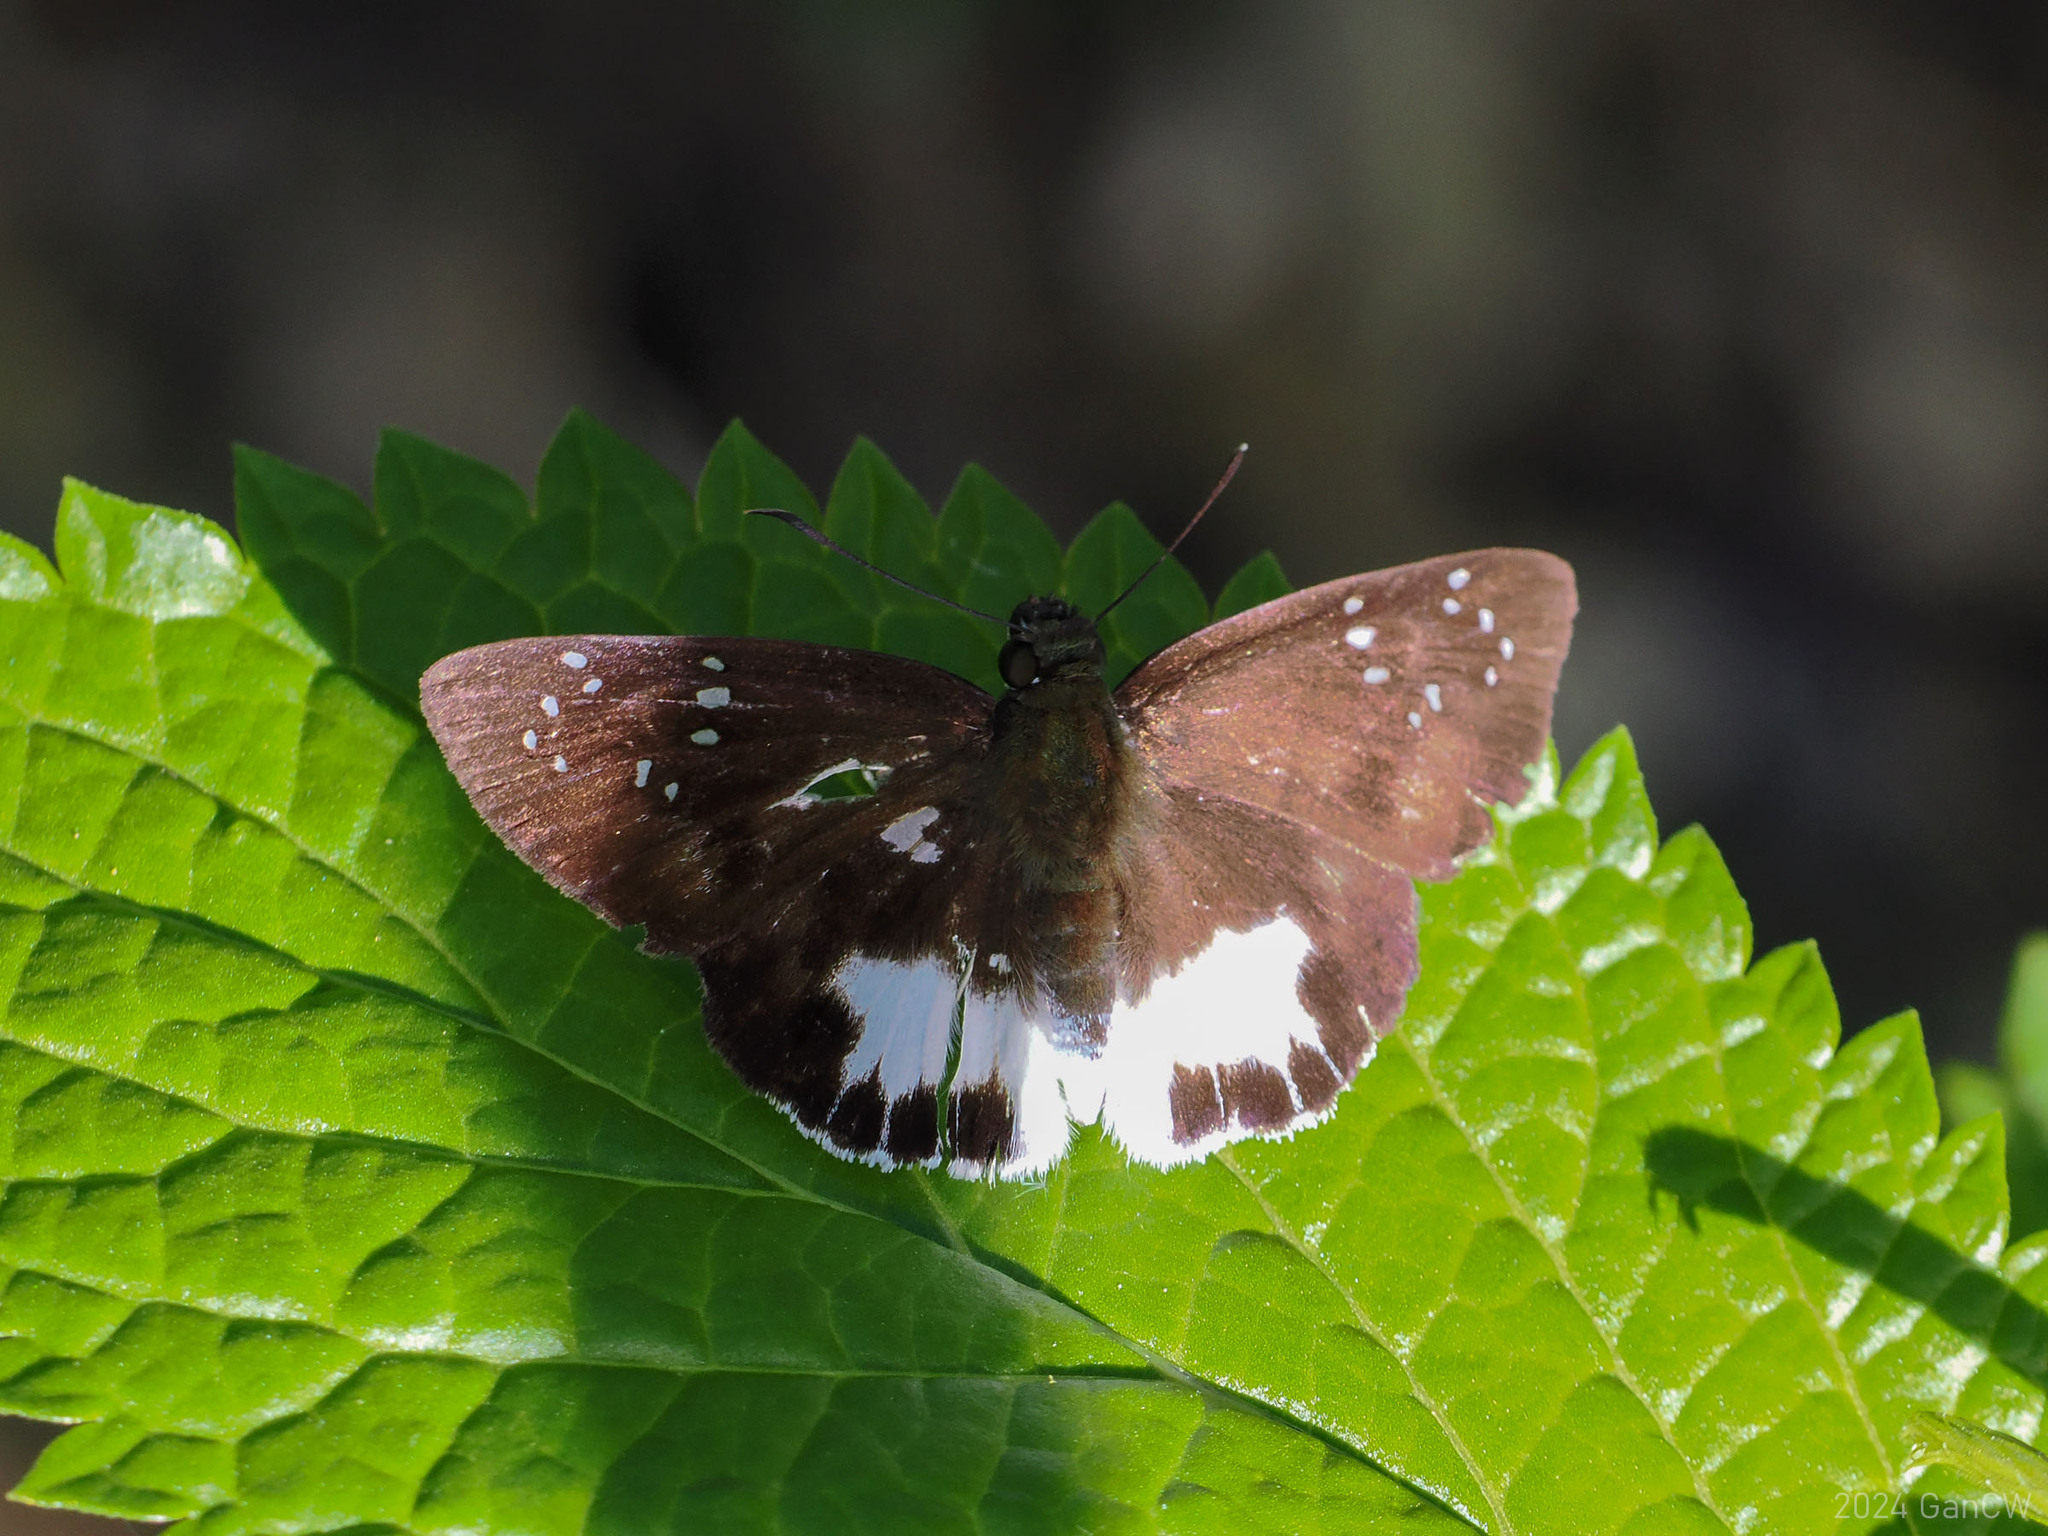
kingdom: Animalia
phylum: Arthropoda
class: Insecta
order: Lepidoptera
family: Hesperiidae
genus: Tagiades
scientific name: Tagiades trebellius
